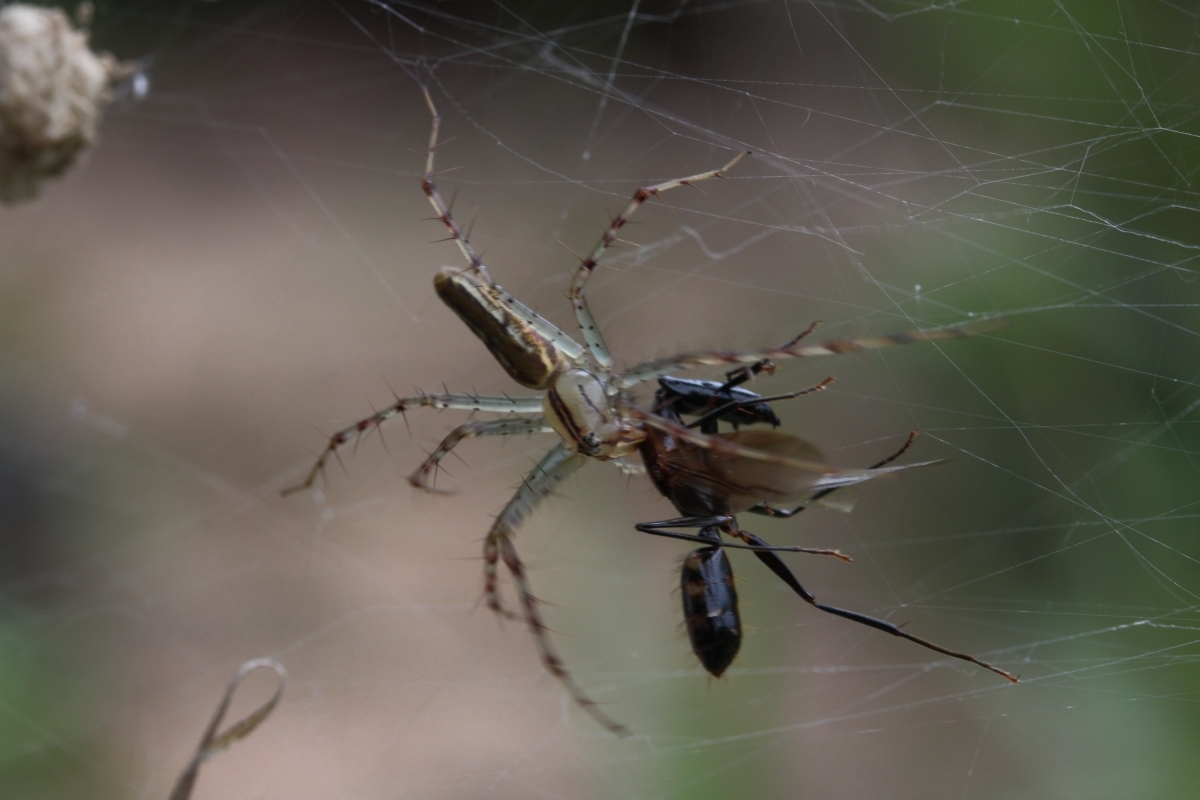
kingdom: Animalia
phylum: Arthropoda
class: Arachnida
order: Araneae
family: Oxyopidae
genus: Peucetia
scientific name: Peucetia rubrolineata
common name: Lynx spiders
